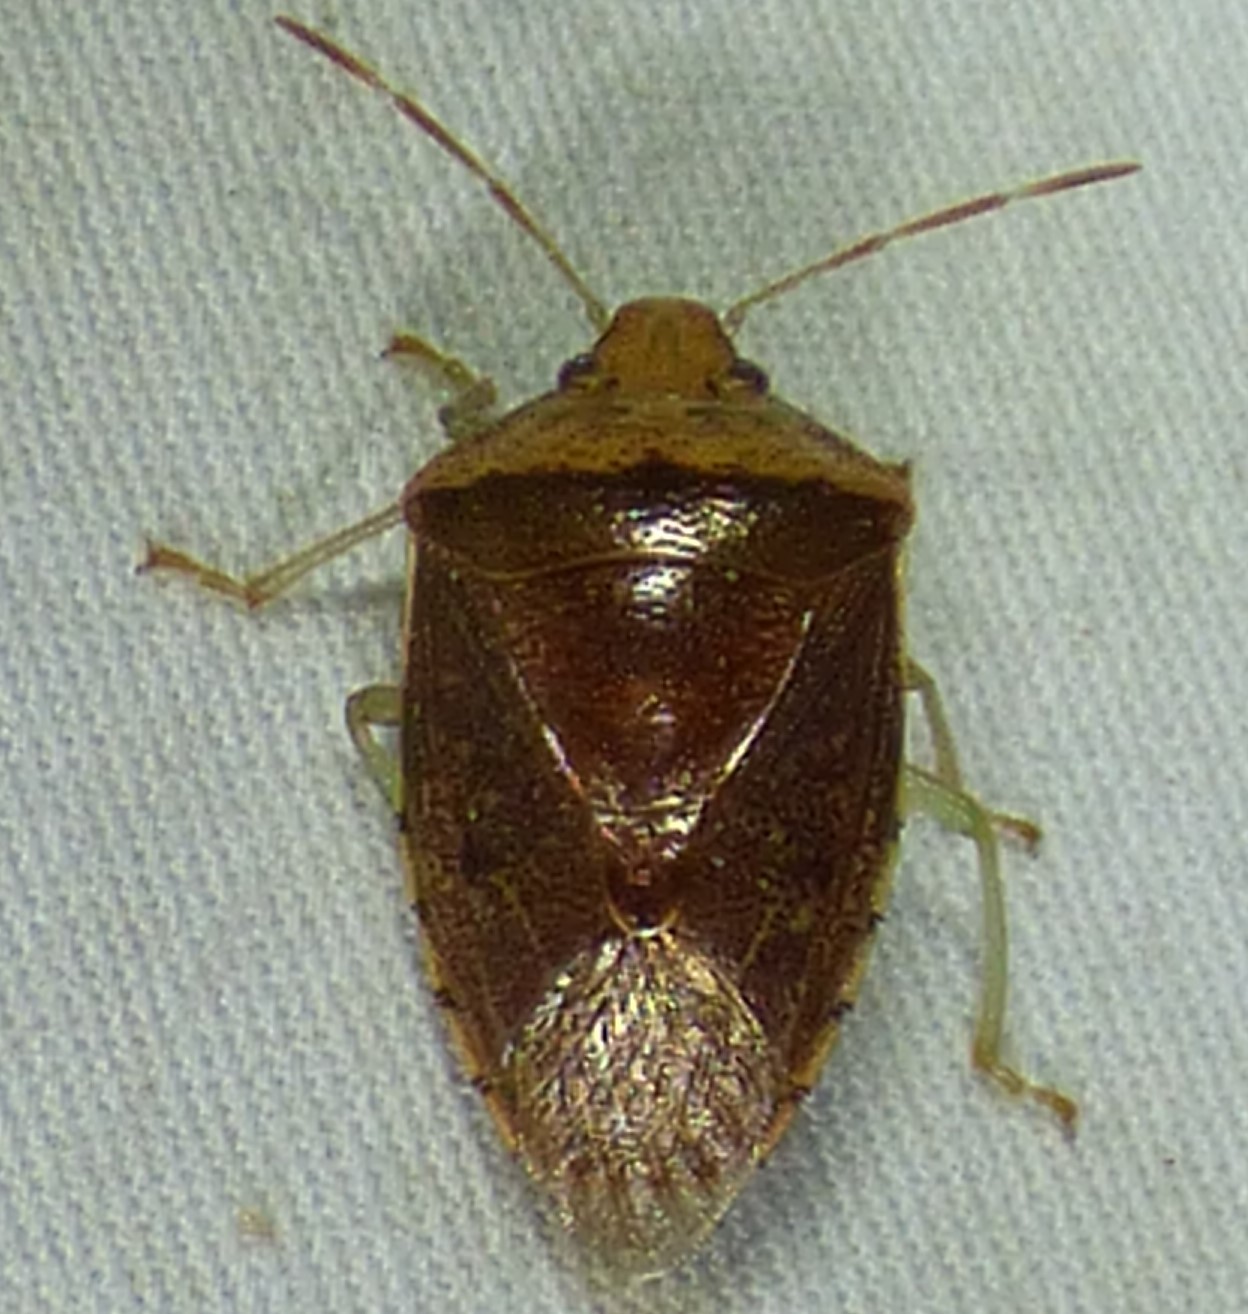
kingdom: Animalia
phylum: Arthropoda
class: Insecta
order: Hemiptera
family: Pentatomidae
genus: Banasa
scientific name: Banasa calva
